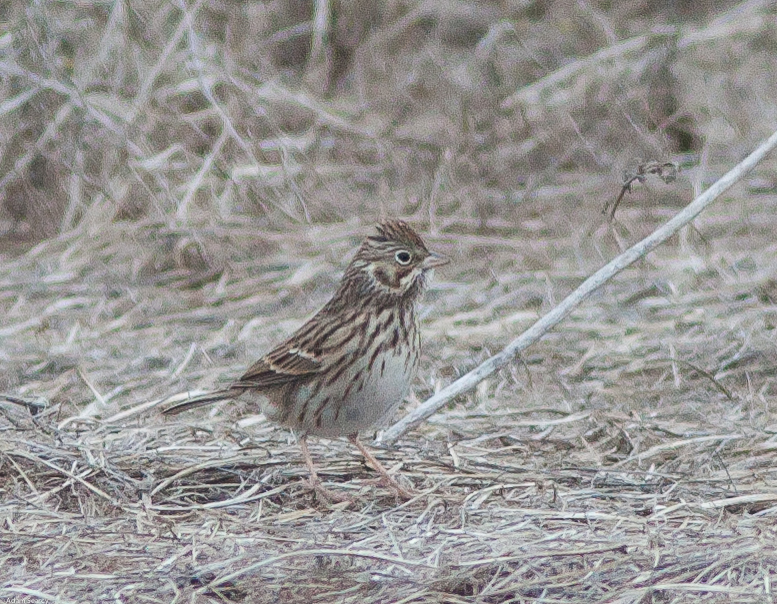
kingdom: Animalia
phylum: Chordata
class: Aves
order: Passeriformes
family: Passerellidae
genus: Pooecetes
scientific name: Pooecetes gramineus
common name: Vesper sparrow
